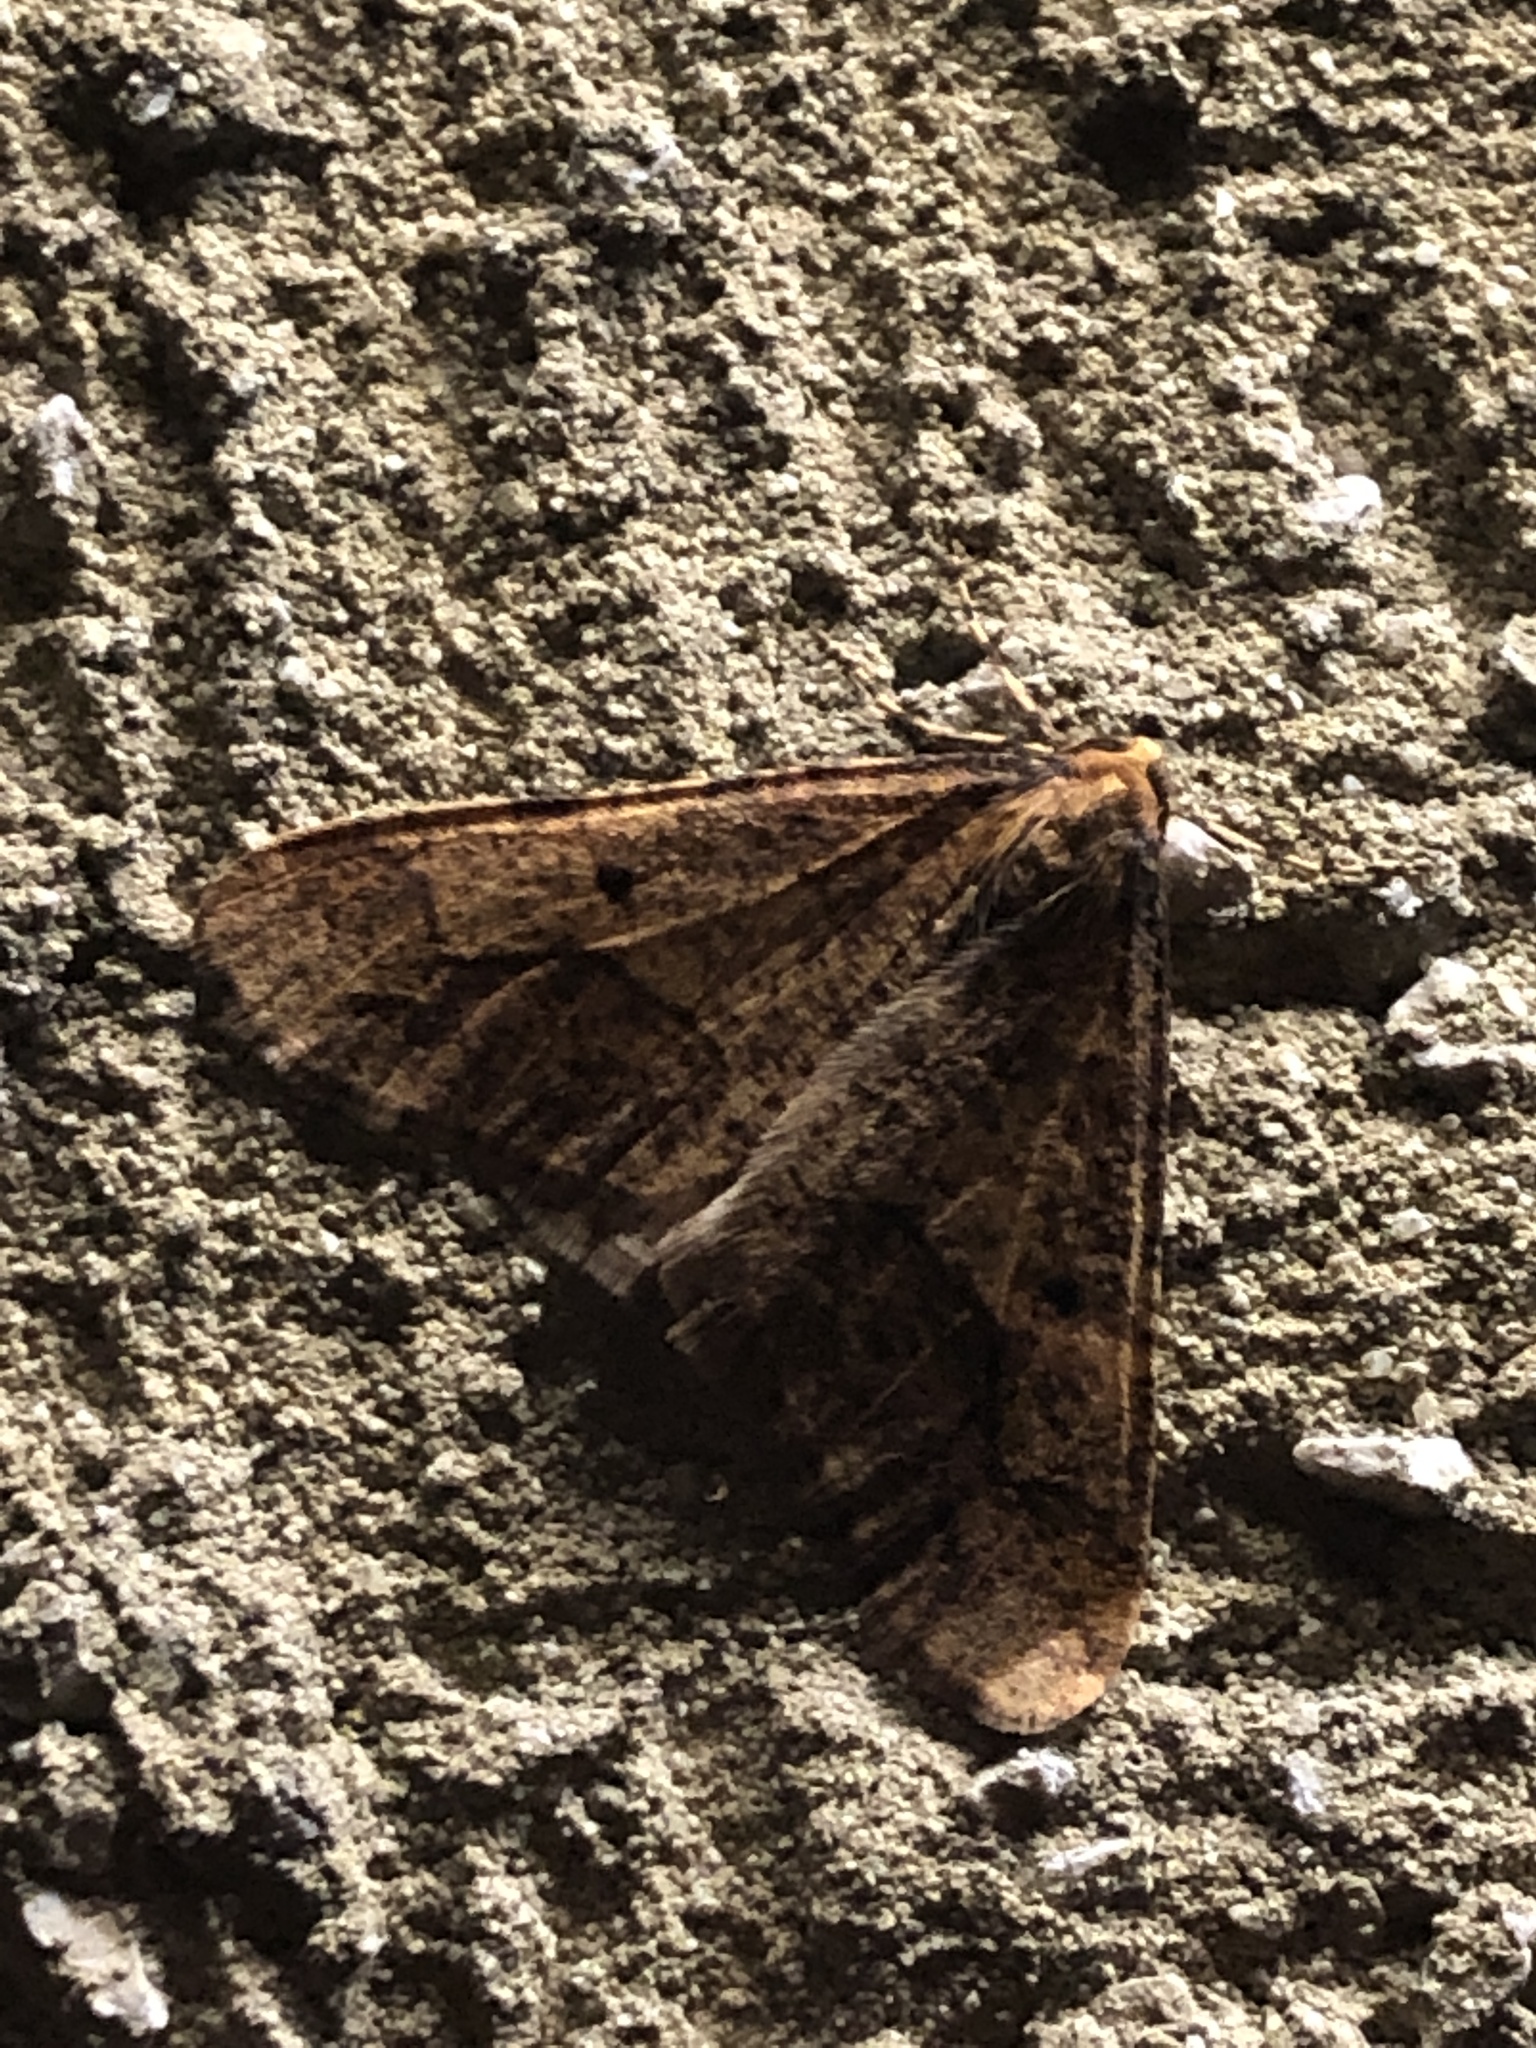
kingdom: Animalia
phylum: Arthropoda
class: Insecta
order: Lepidoptera
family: Geometridae
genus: Erannis
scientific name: Erannis defoliaria
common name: Mottled umber
